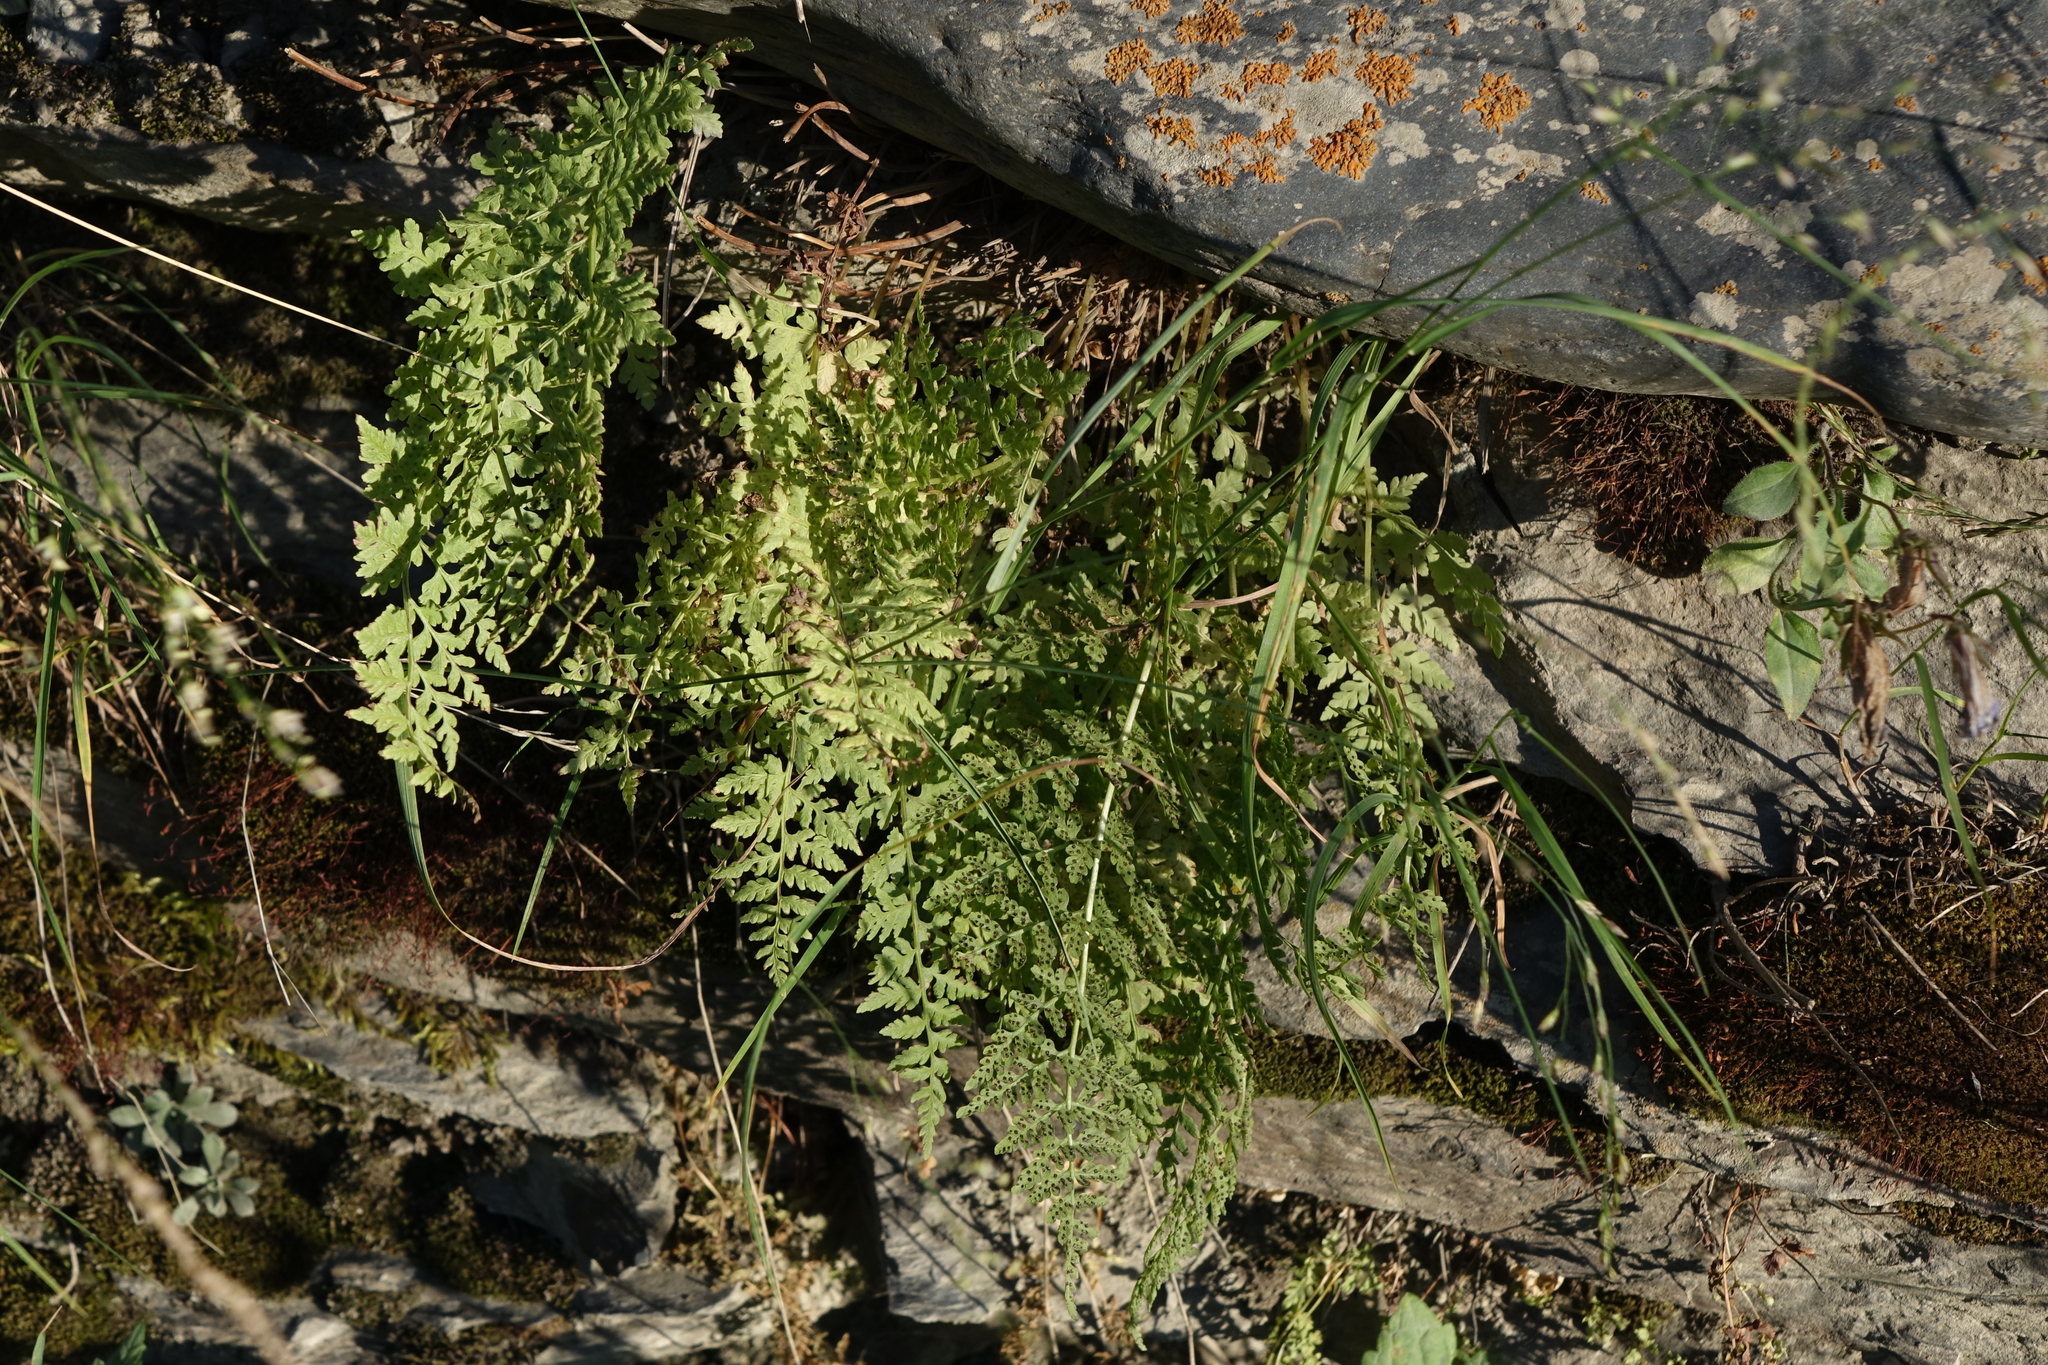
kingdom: Plantae
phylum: Tracheophyta
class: Polypodiopsida
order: Polypodiales
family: Cystopteridaceae
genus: Cystopteris
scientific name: Cystopteris fragilis
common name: Brittle bladder fern
